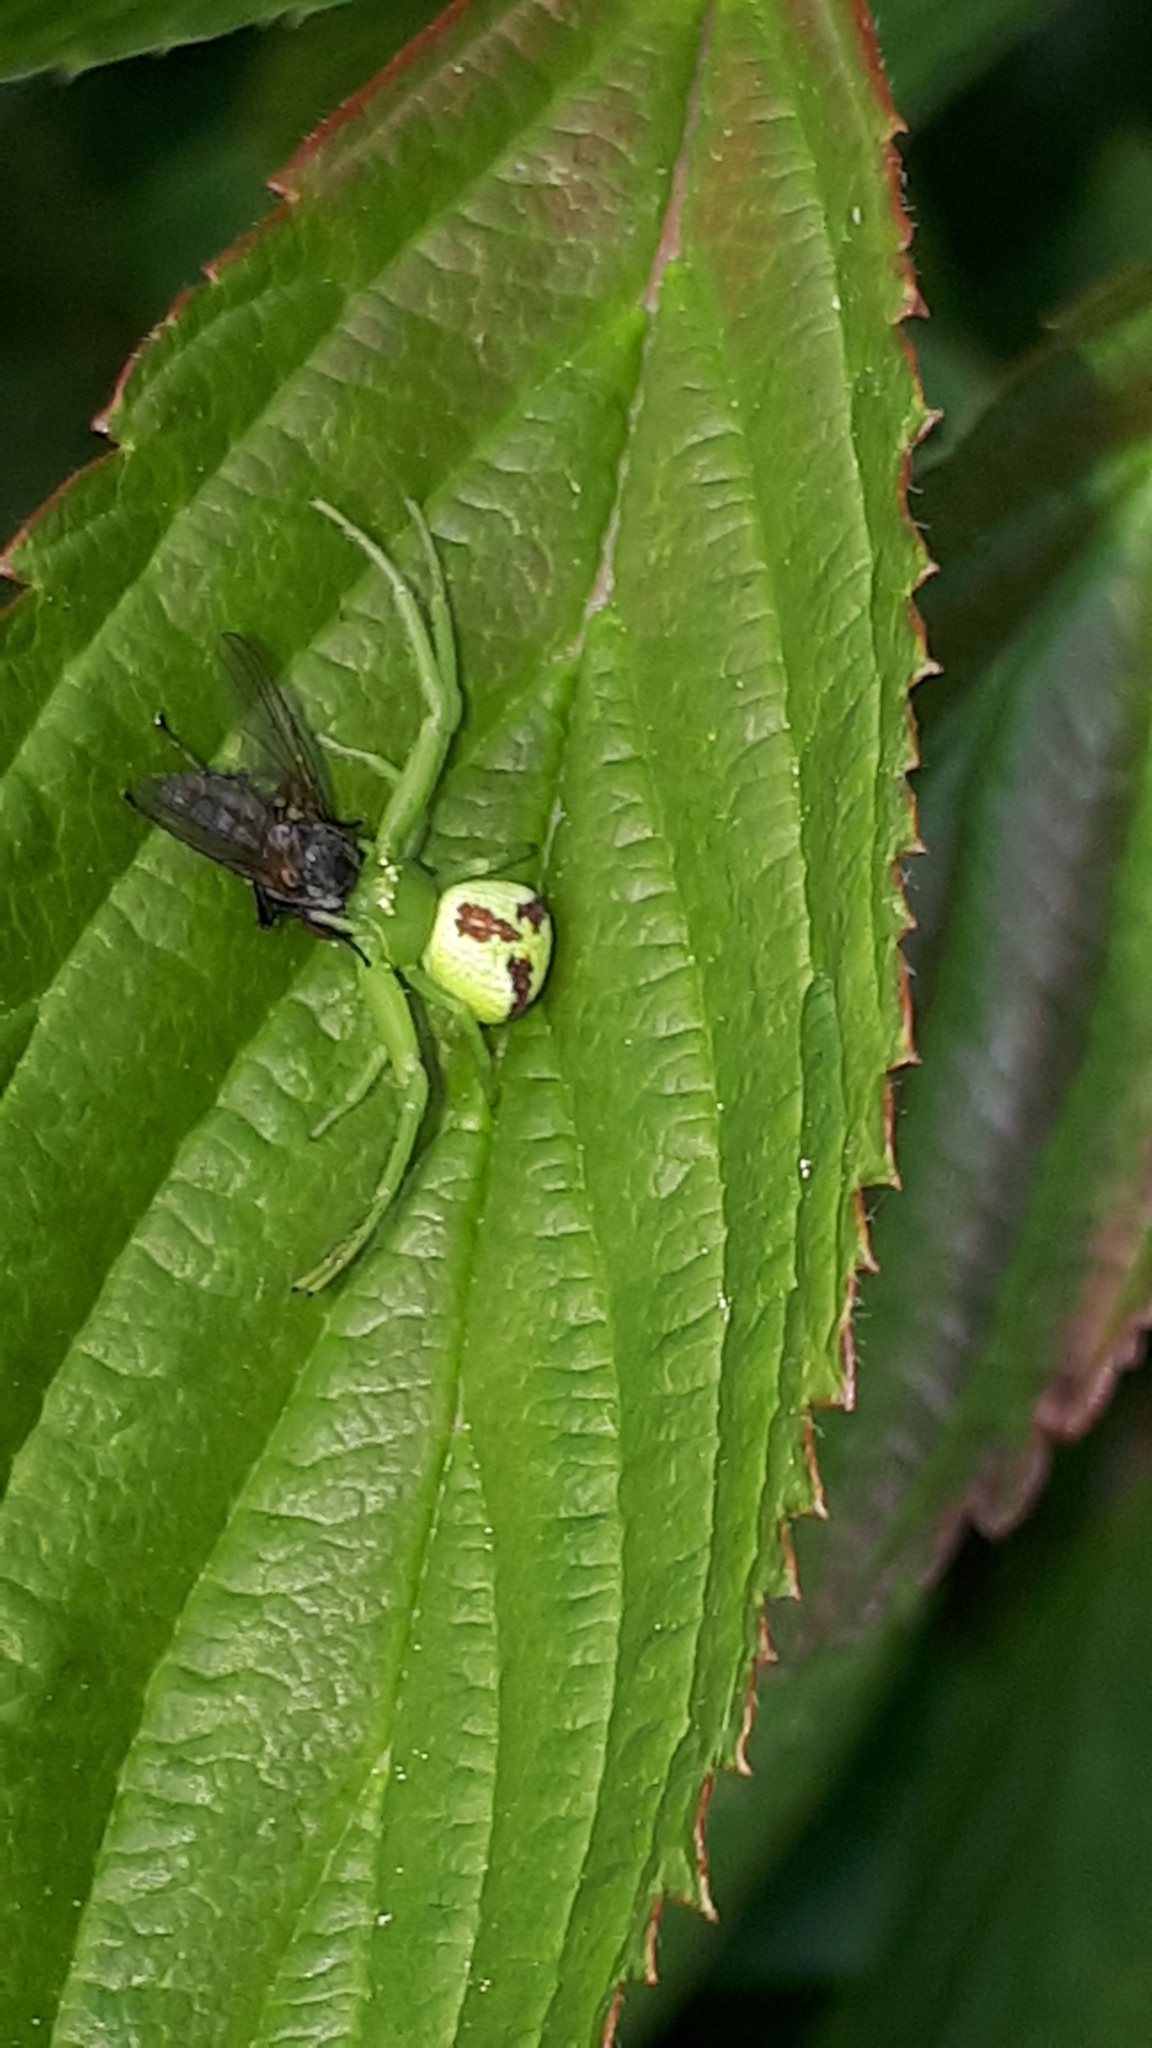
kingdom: Animalia
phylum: Arthropoda
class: Arachnida
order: Araneae
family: Thomisidae
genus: Ebrechtella
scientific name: Ebrechtella tricuspidata
